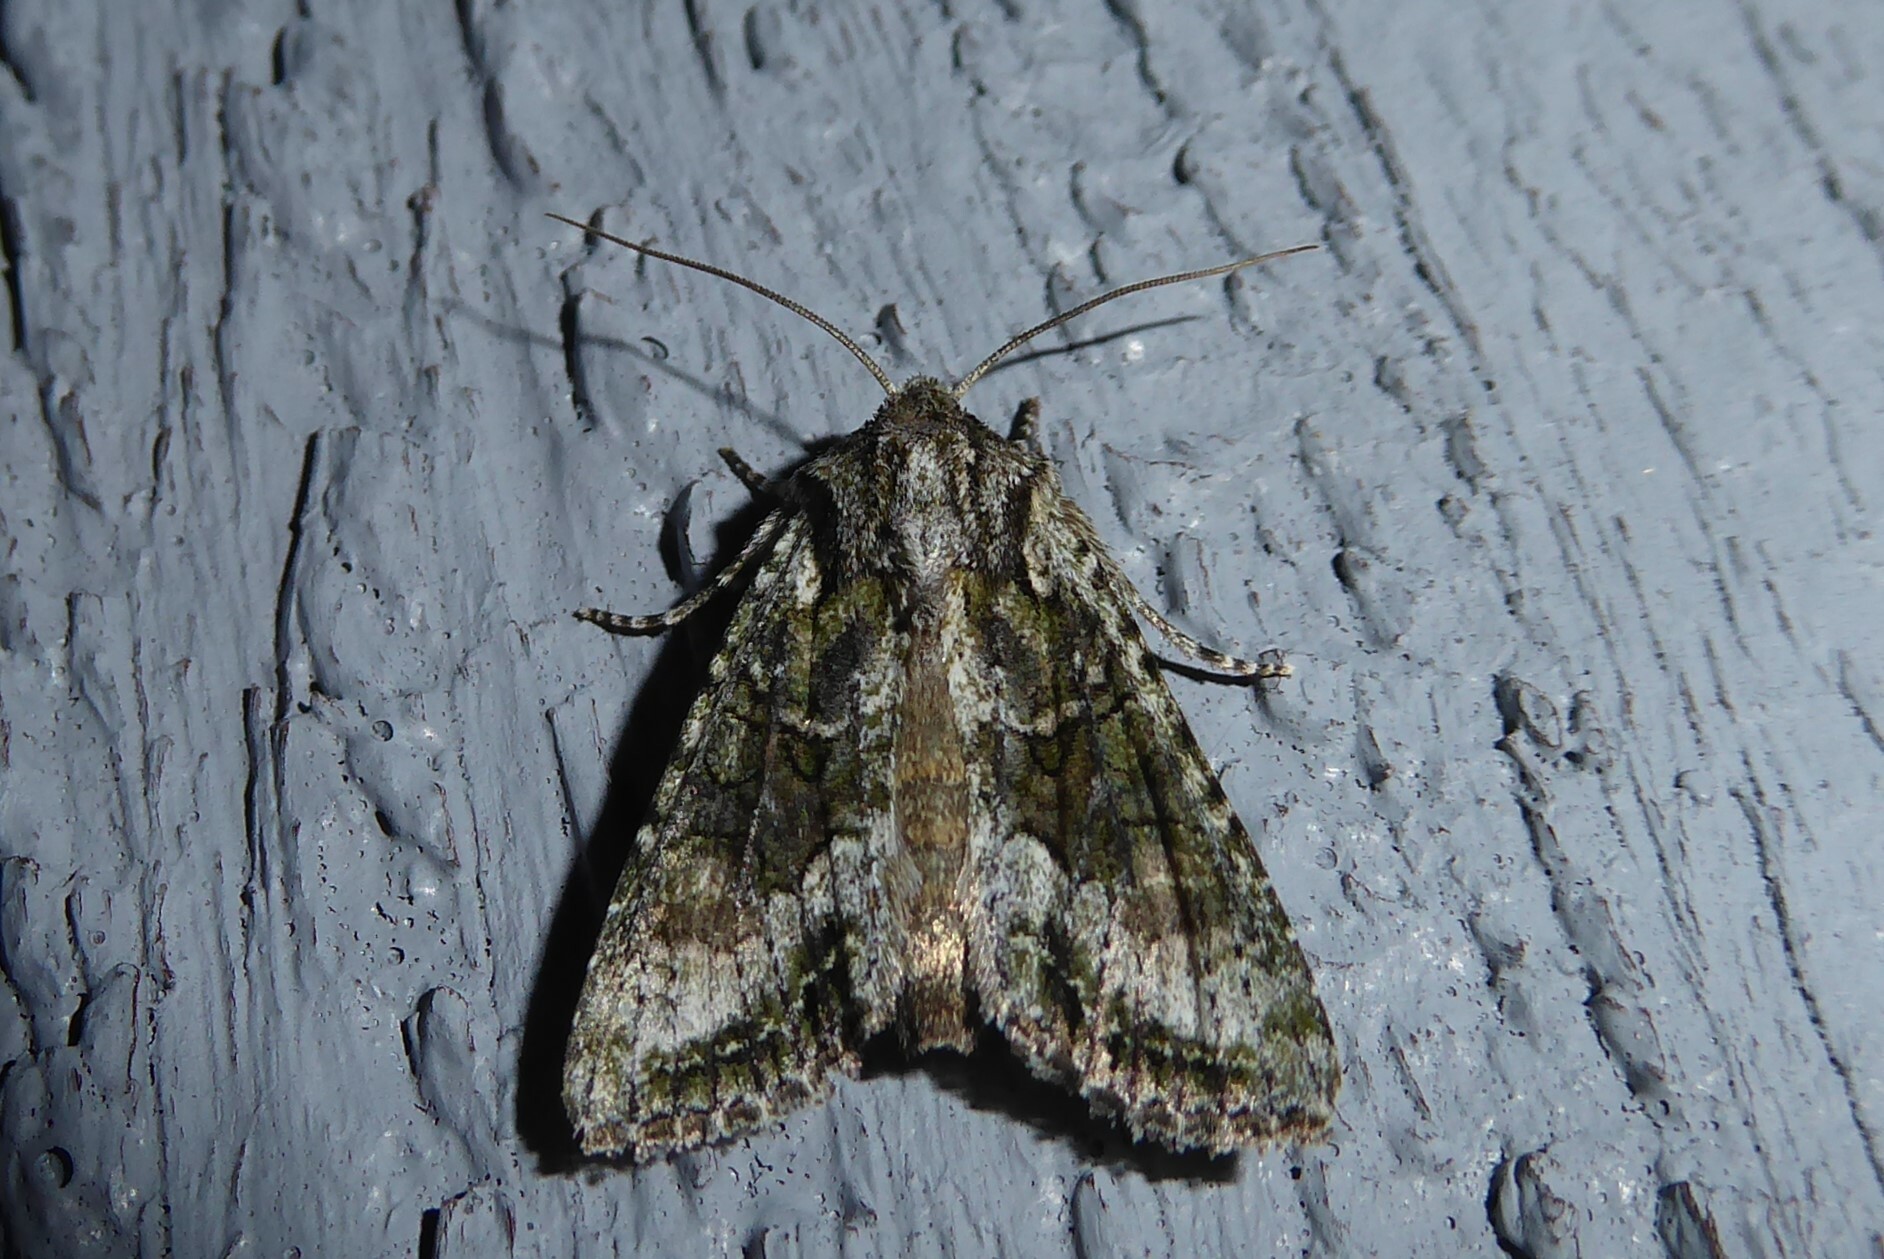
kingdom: Animalia
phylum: Arthropoda
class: Insecta
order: Lepidoptera
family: Noctuidae
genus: Ichneutica
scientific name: Ichneutica mutans
